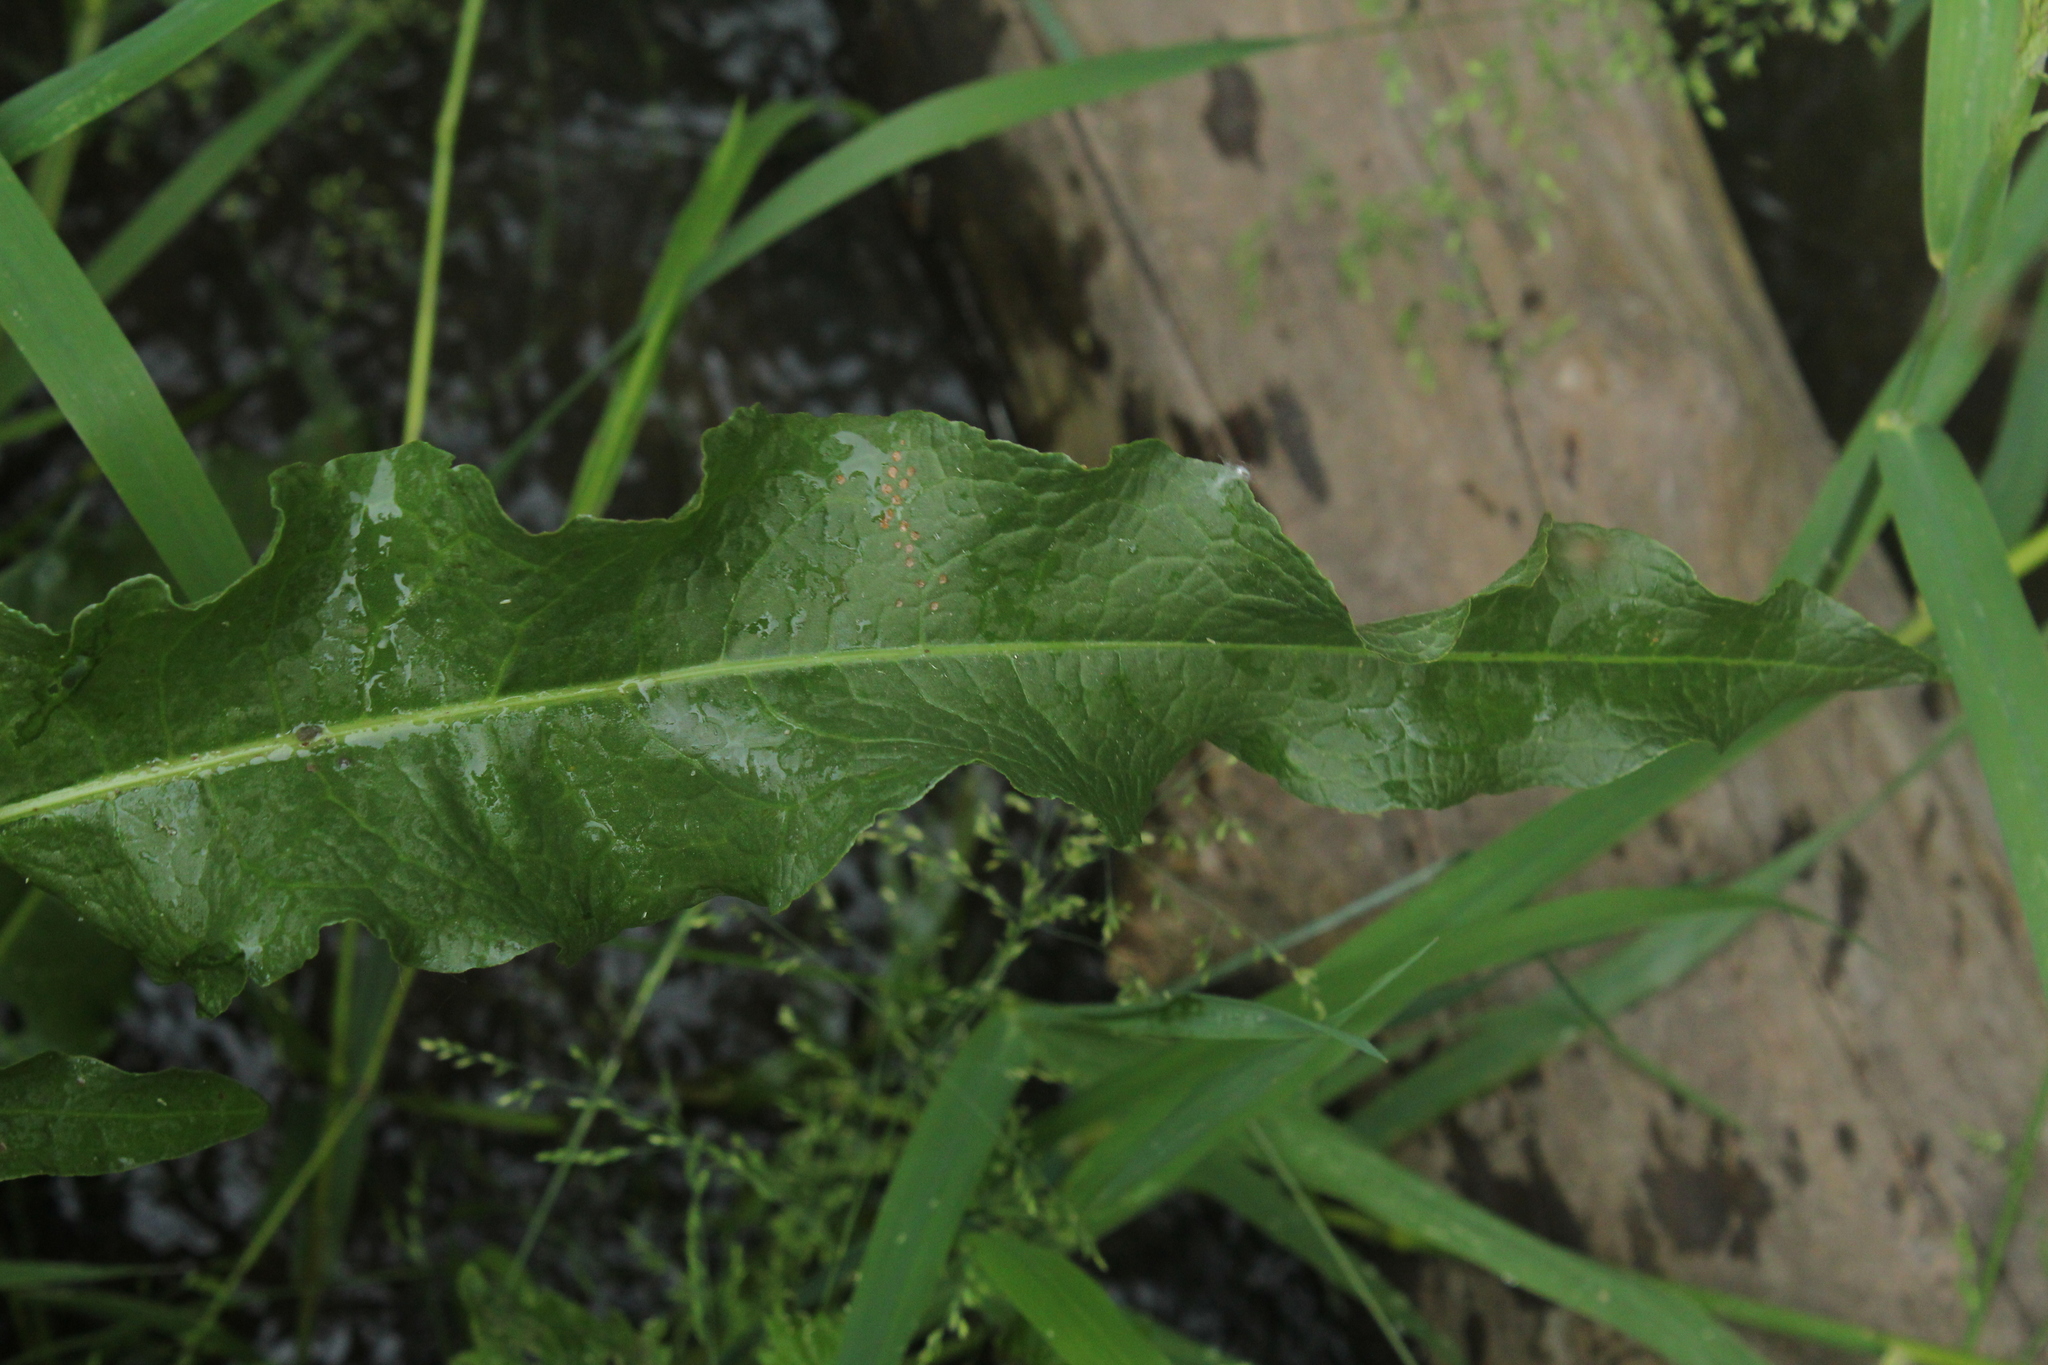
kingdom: Plantae
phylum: Tracheophyta
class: Magnoliopsida
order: Caryophyllales
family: Polygonaceae
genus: Rumex
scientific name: Rumex britannica
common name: British dock
